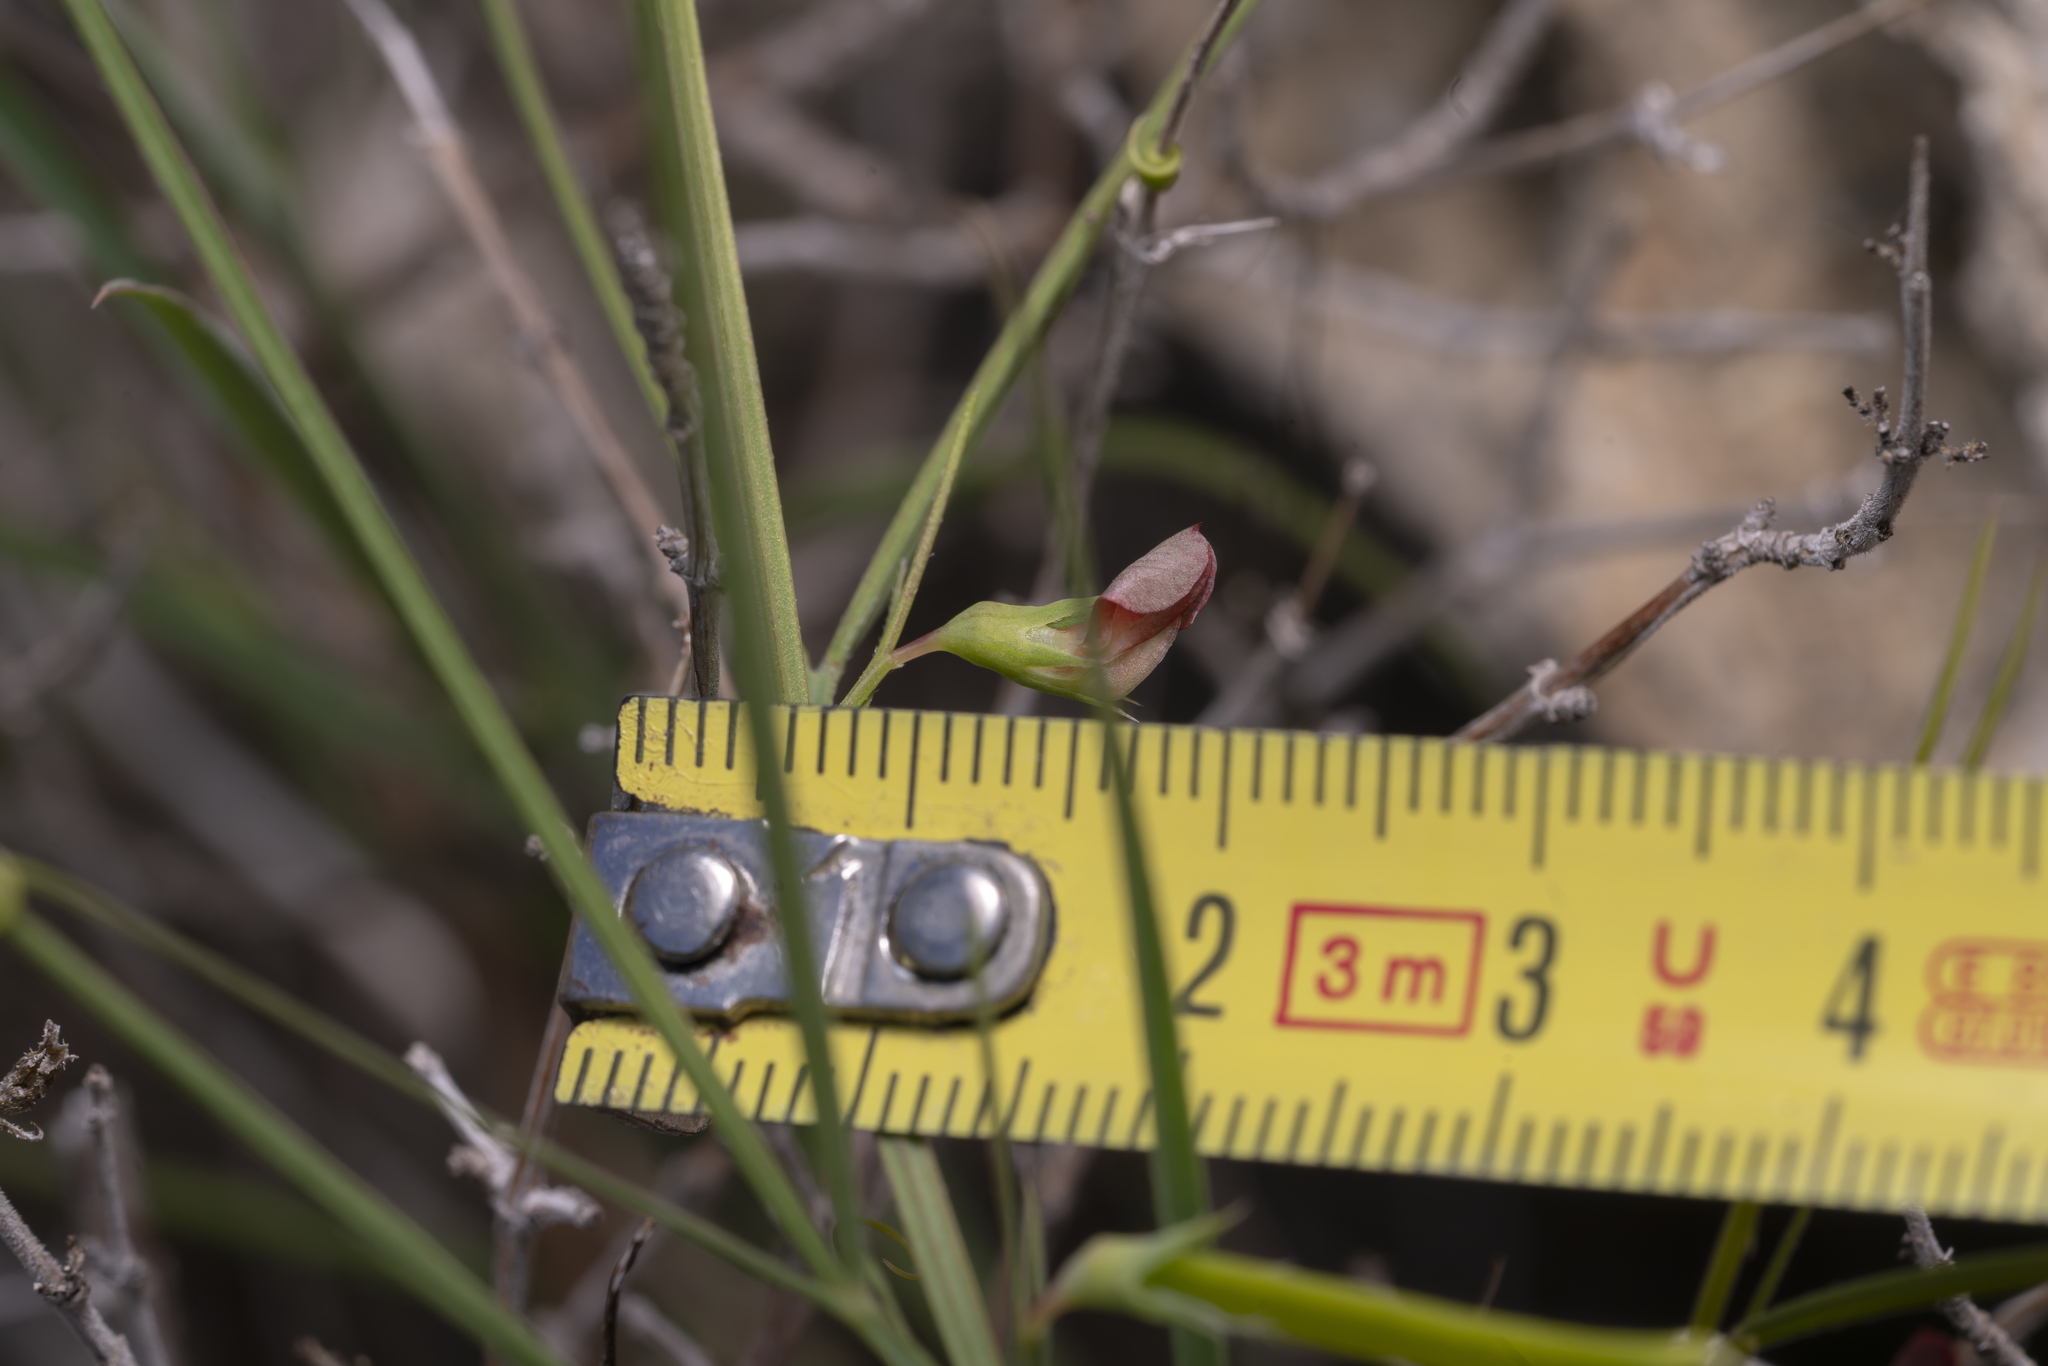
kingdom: Plantae
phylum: Tracheophyta
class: Magnoliopsida
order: Fabales
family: Fabaceae
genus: Lathyrus
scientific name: Lathyrus sphaericus
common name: Grass pea
